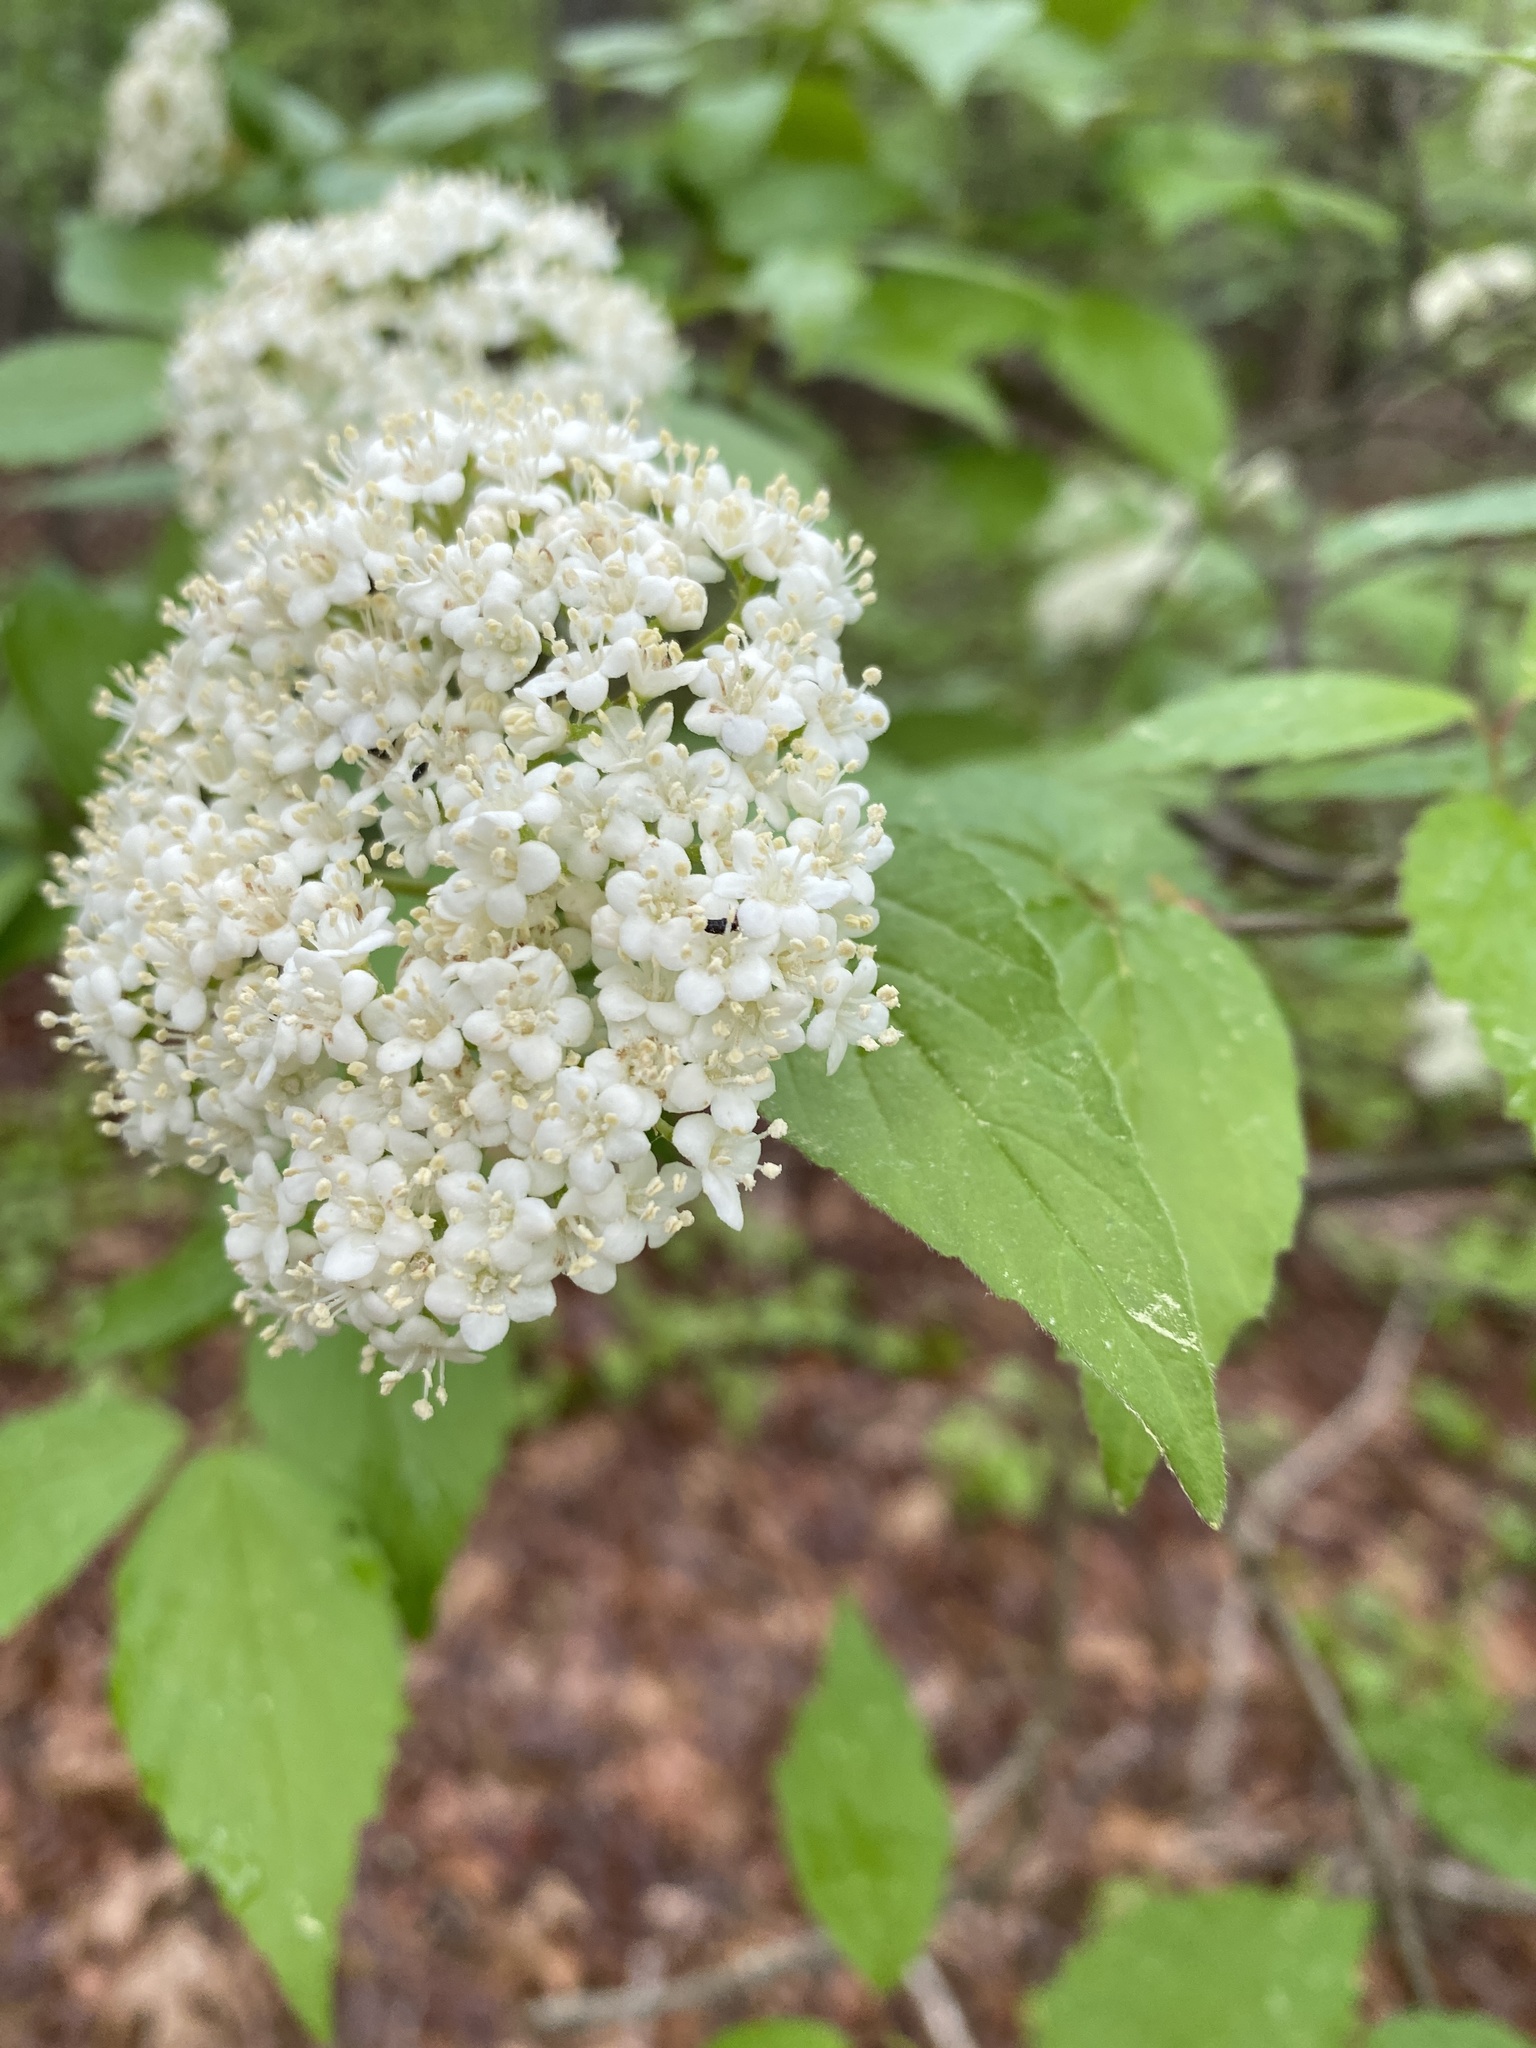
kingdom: Plantae
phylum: Tracheophyta
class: Magnoliopsida
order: Dipsacales
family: Viburnaceae
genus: Viburnum
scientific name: Viburnum rafinesqueanum
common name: Downy arrow-wood
